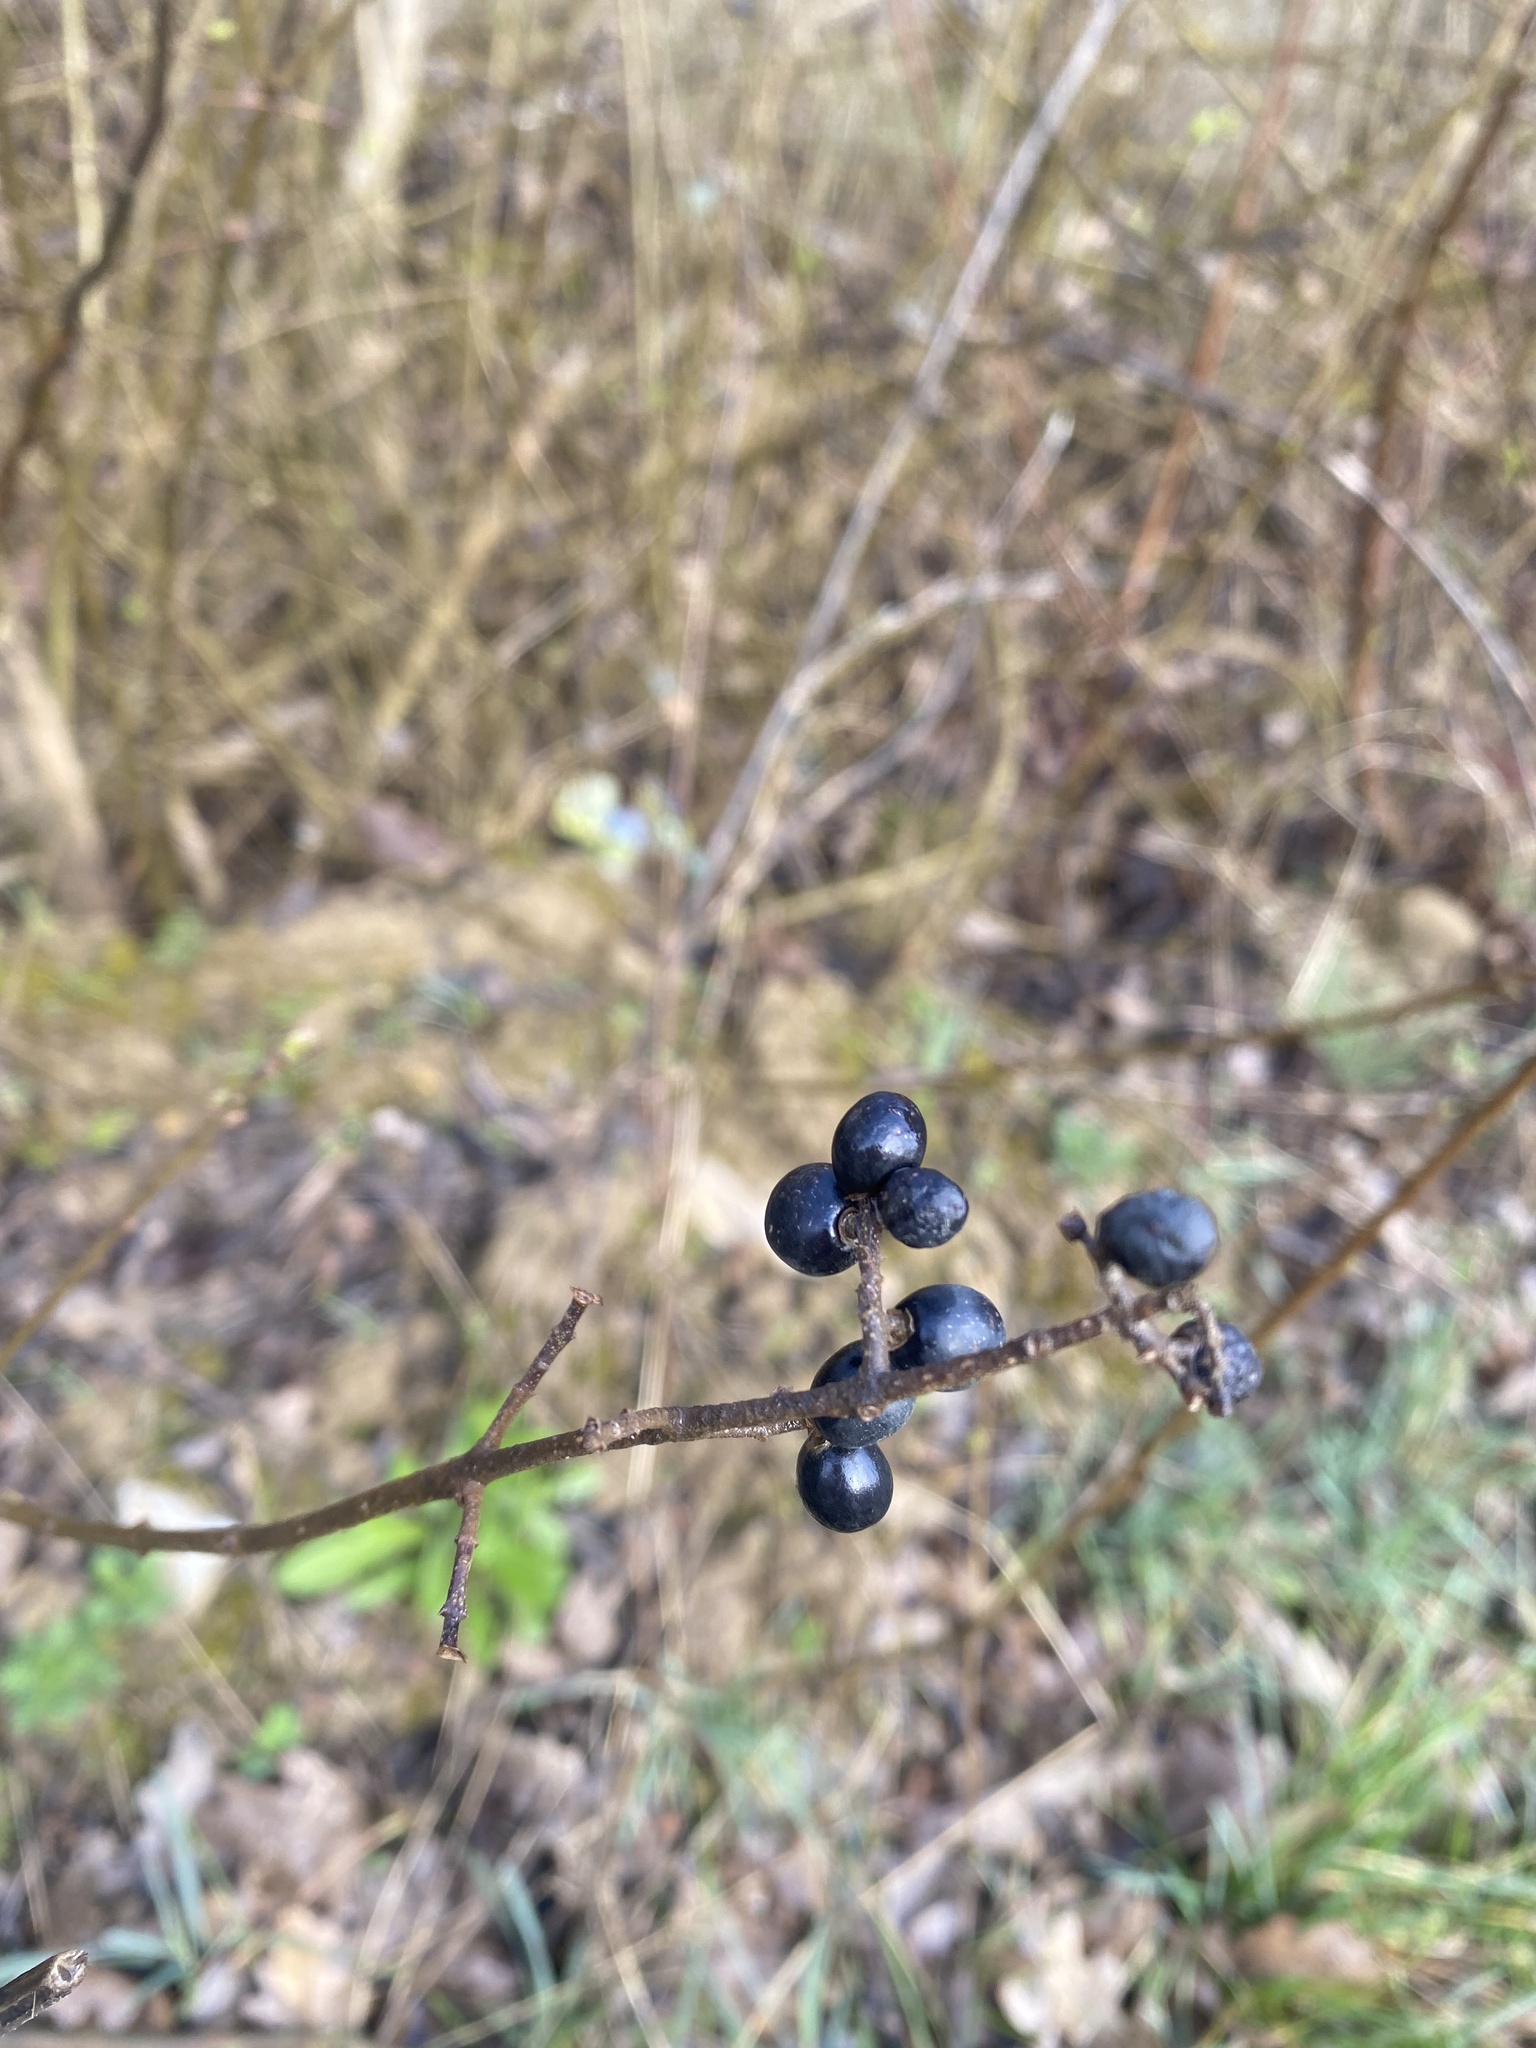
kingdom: Plantae
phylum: Tracheophyta
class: Magnoliopsida
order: Lamiales
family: Oleaceae
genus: Ligustrum
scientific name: Ligustrum vulgare
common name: Wild privet
